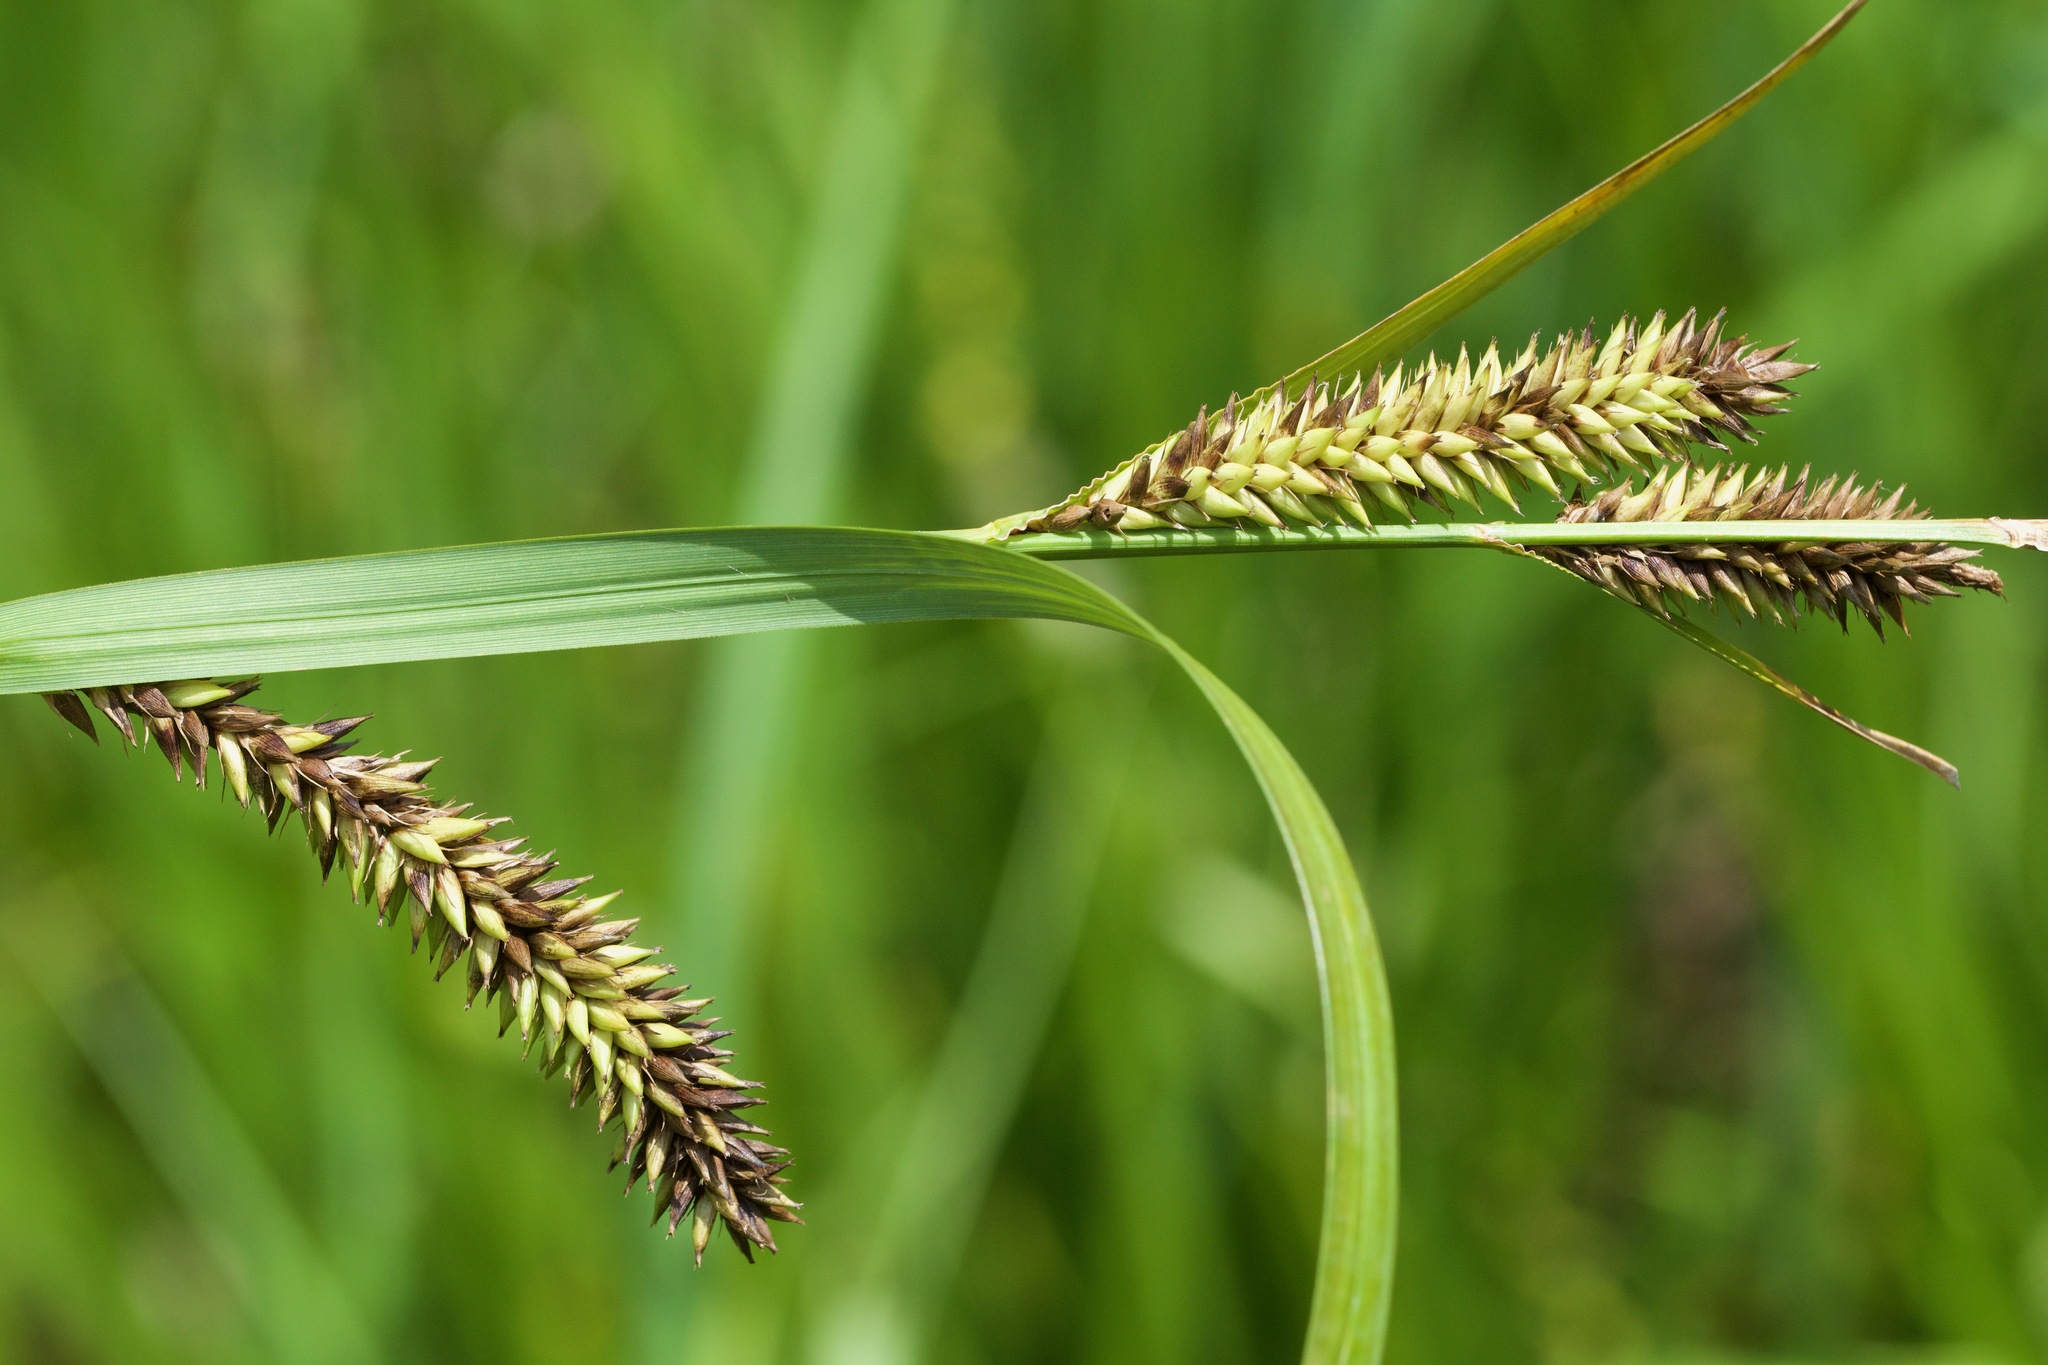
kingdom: Plantae
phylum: Tracheophyta
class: Liliopsida
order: Poales
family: Cyperaceae
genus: Carex
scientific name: Carex lacustris
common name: Common lake sedge
